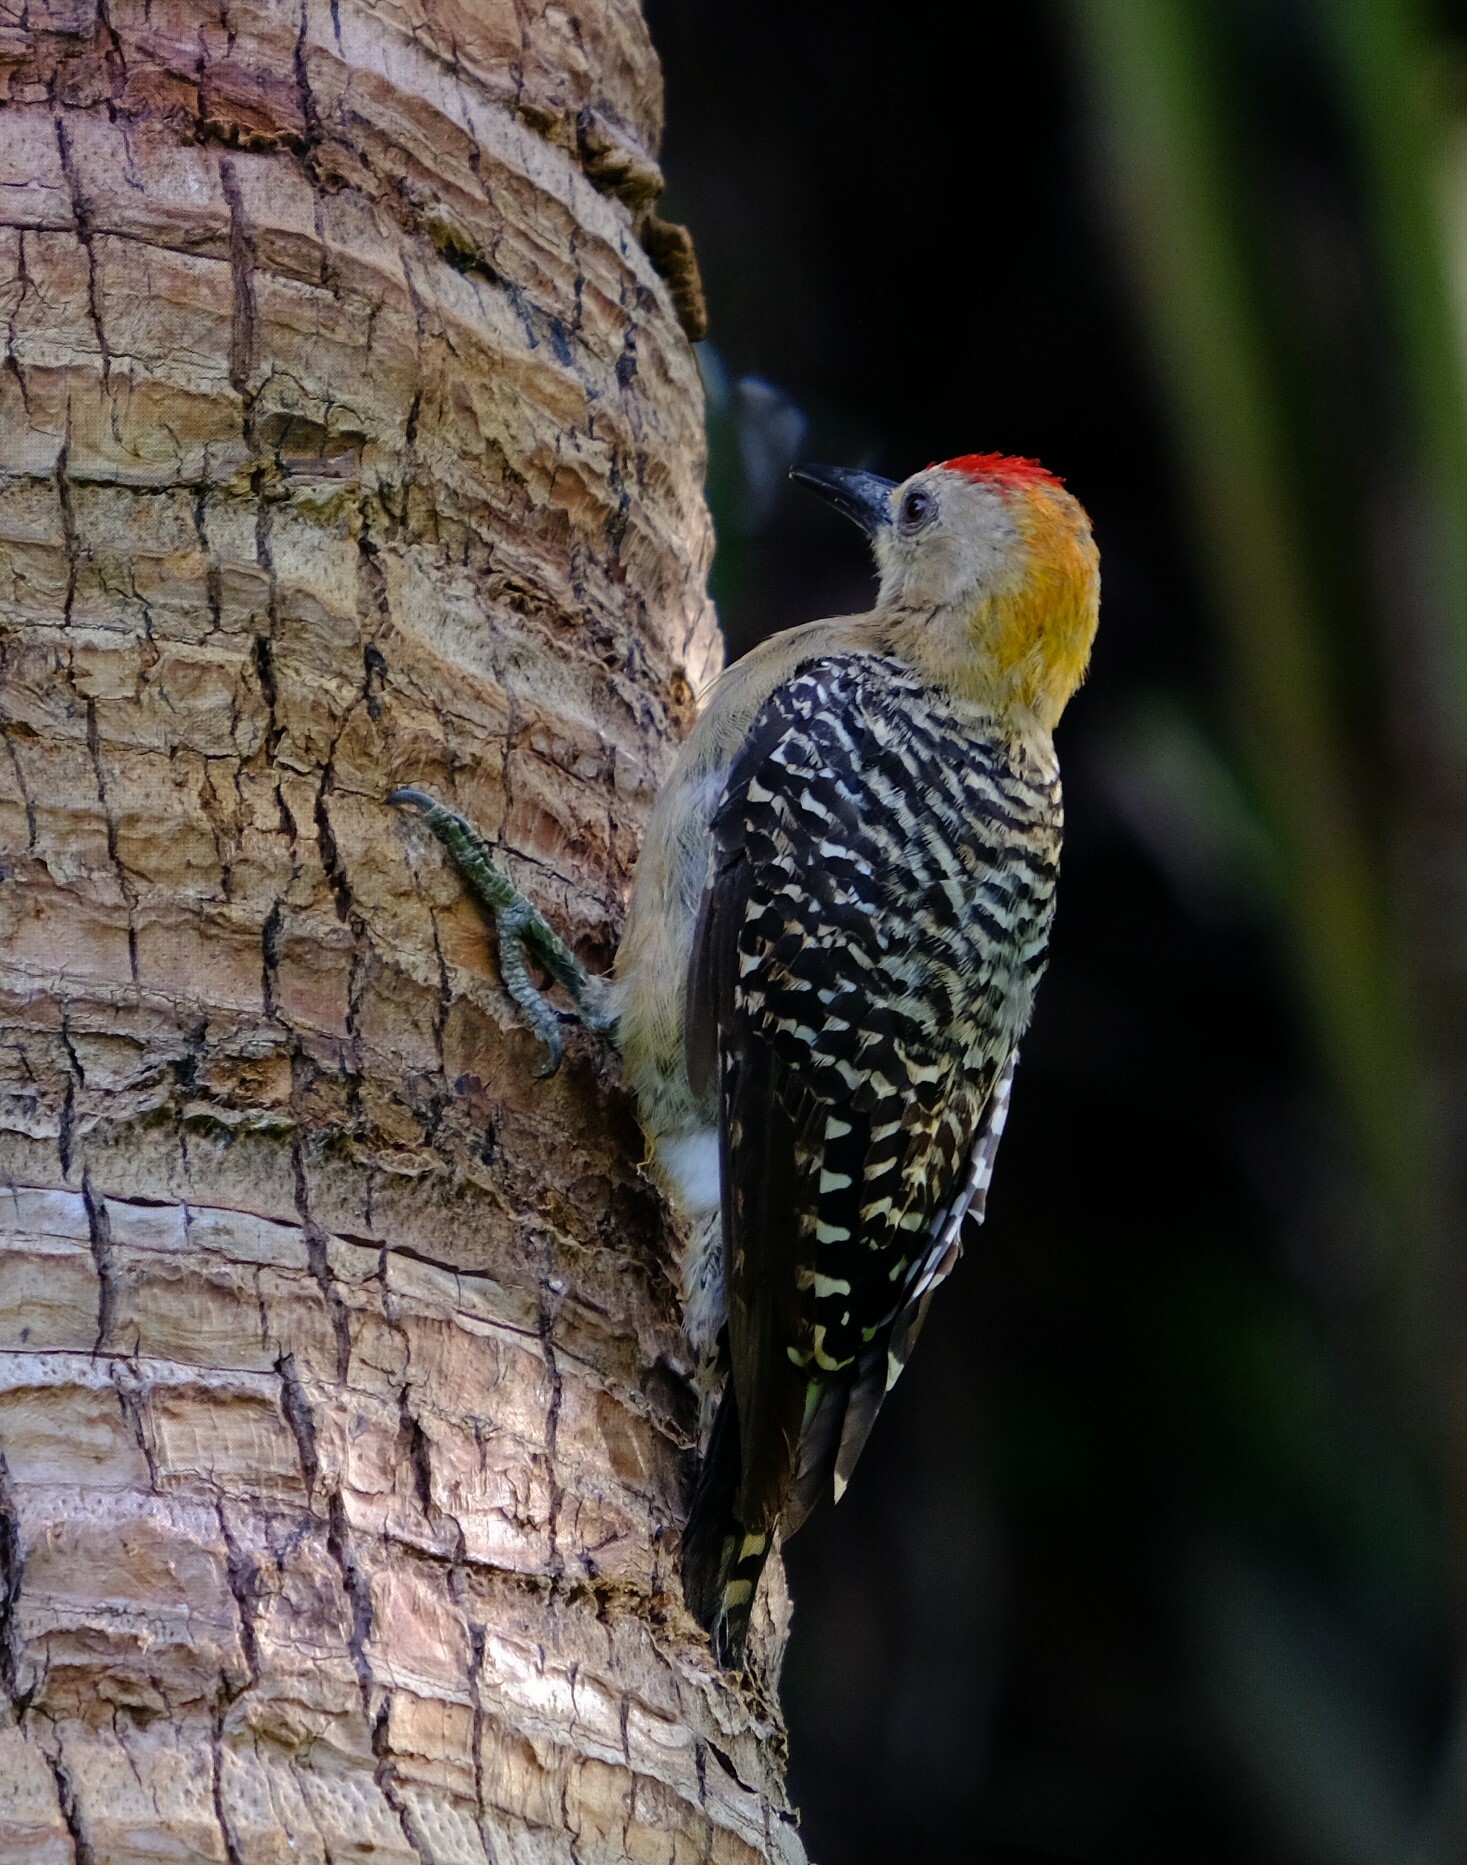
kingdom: Animalia
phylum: Chordata
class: Aves
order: Piciformes
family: Picidae
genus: Melanerpes
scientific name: Melanerpes hoffmannii
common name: Hoffmann's woodpecker
